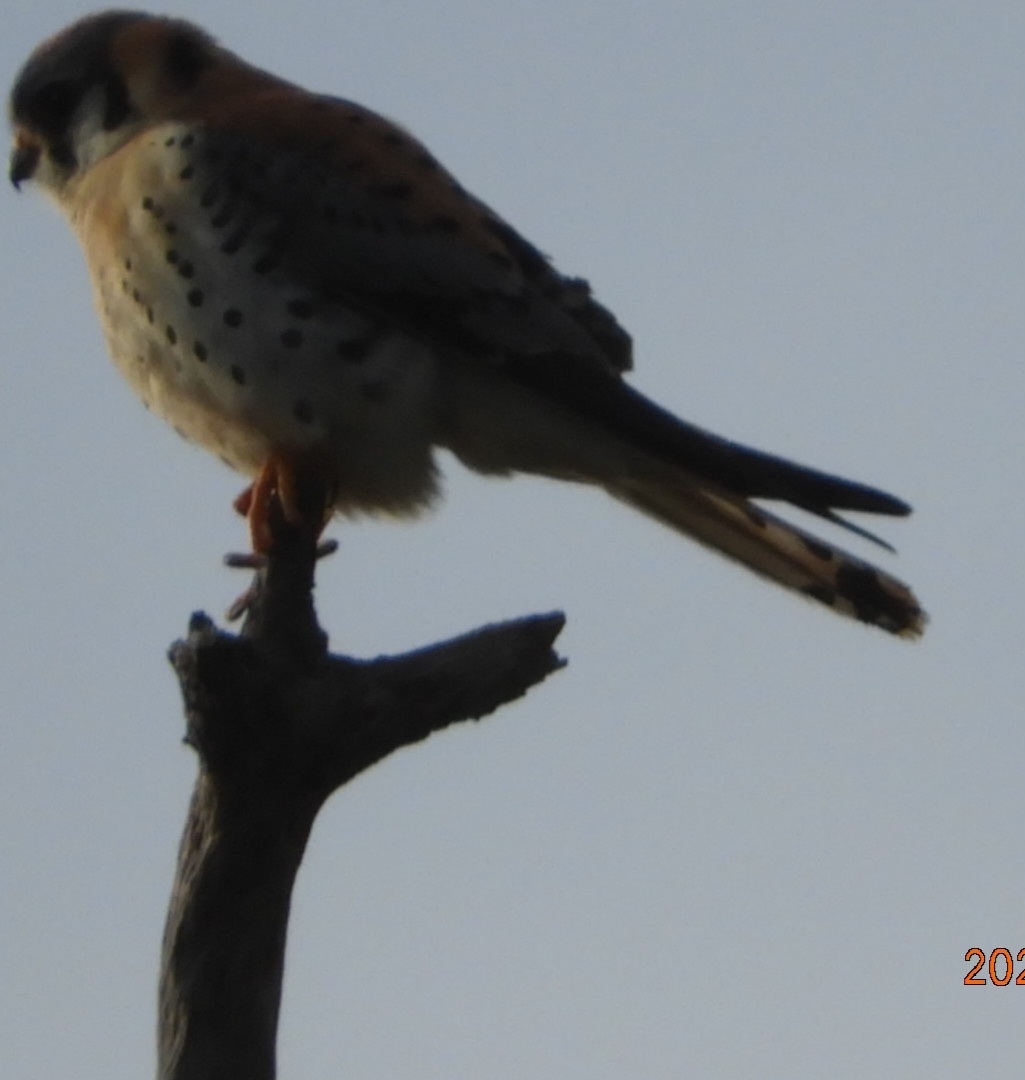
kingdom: Animalia
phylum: Chordata
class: Aves
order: Falconiformes
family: Falconidae
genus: Falco
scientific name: Falco sparverius
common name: American kestrel
